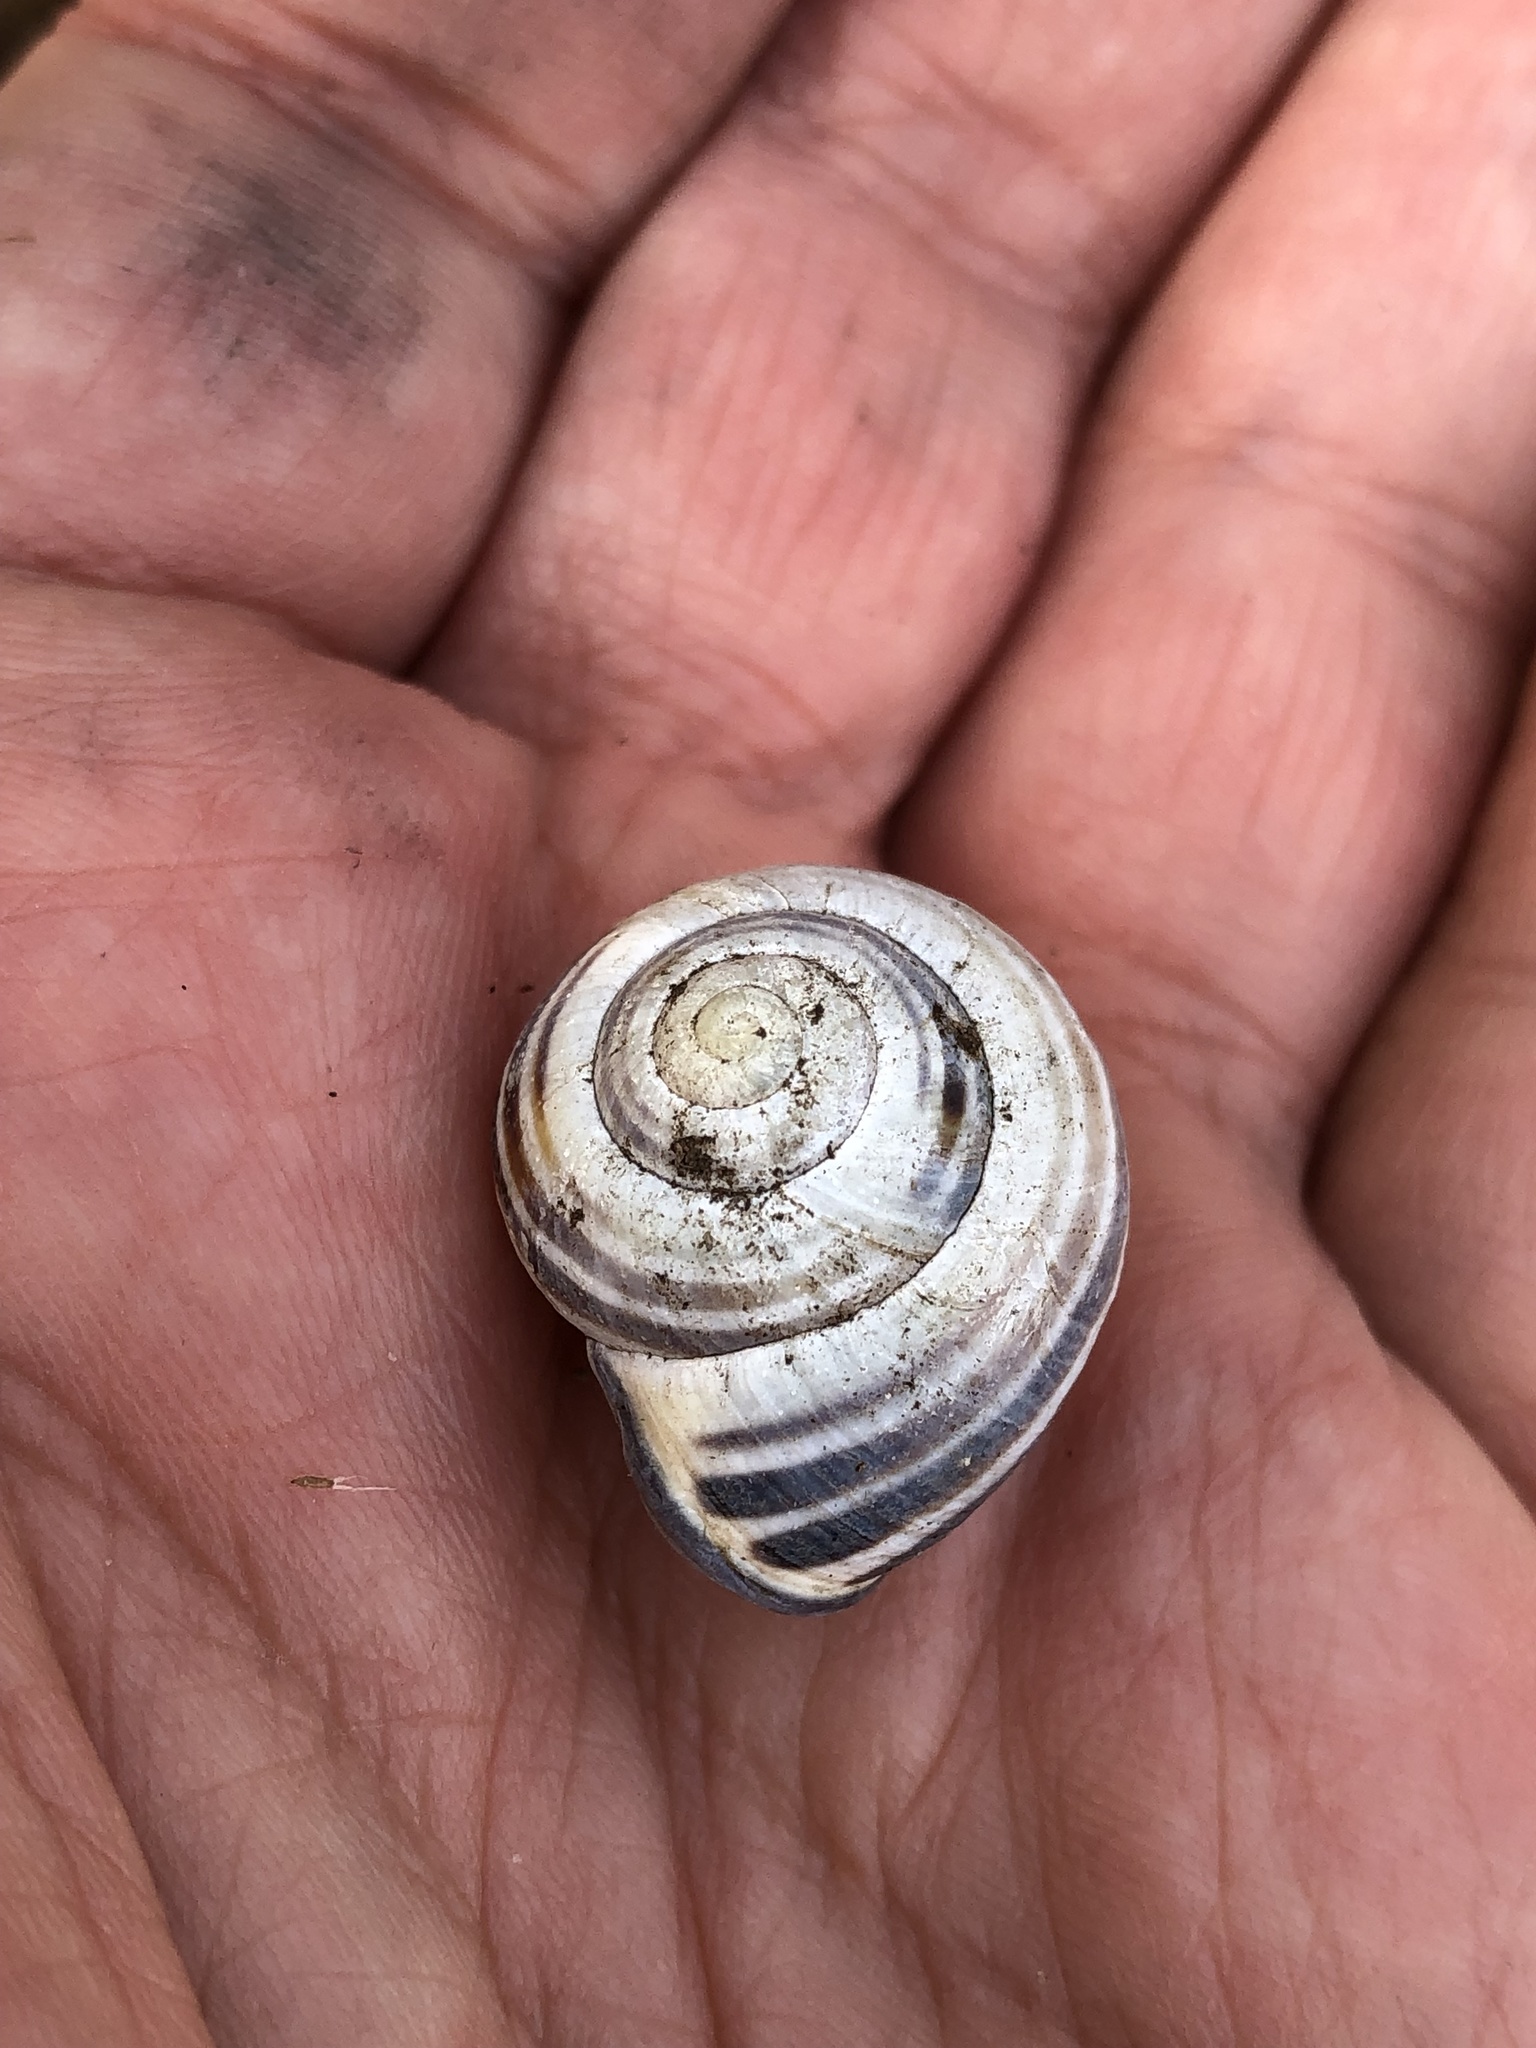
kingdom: Animalia
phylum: Mollusca
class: Gastropoda
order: Stylommatophora
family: Helicidae
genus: Cepaea
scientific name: Cepaea nemoralis
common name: Grovesnail
